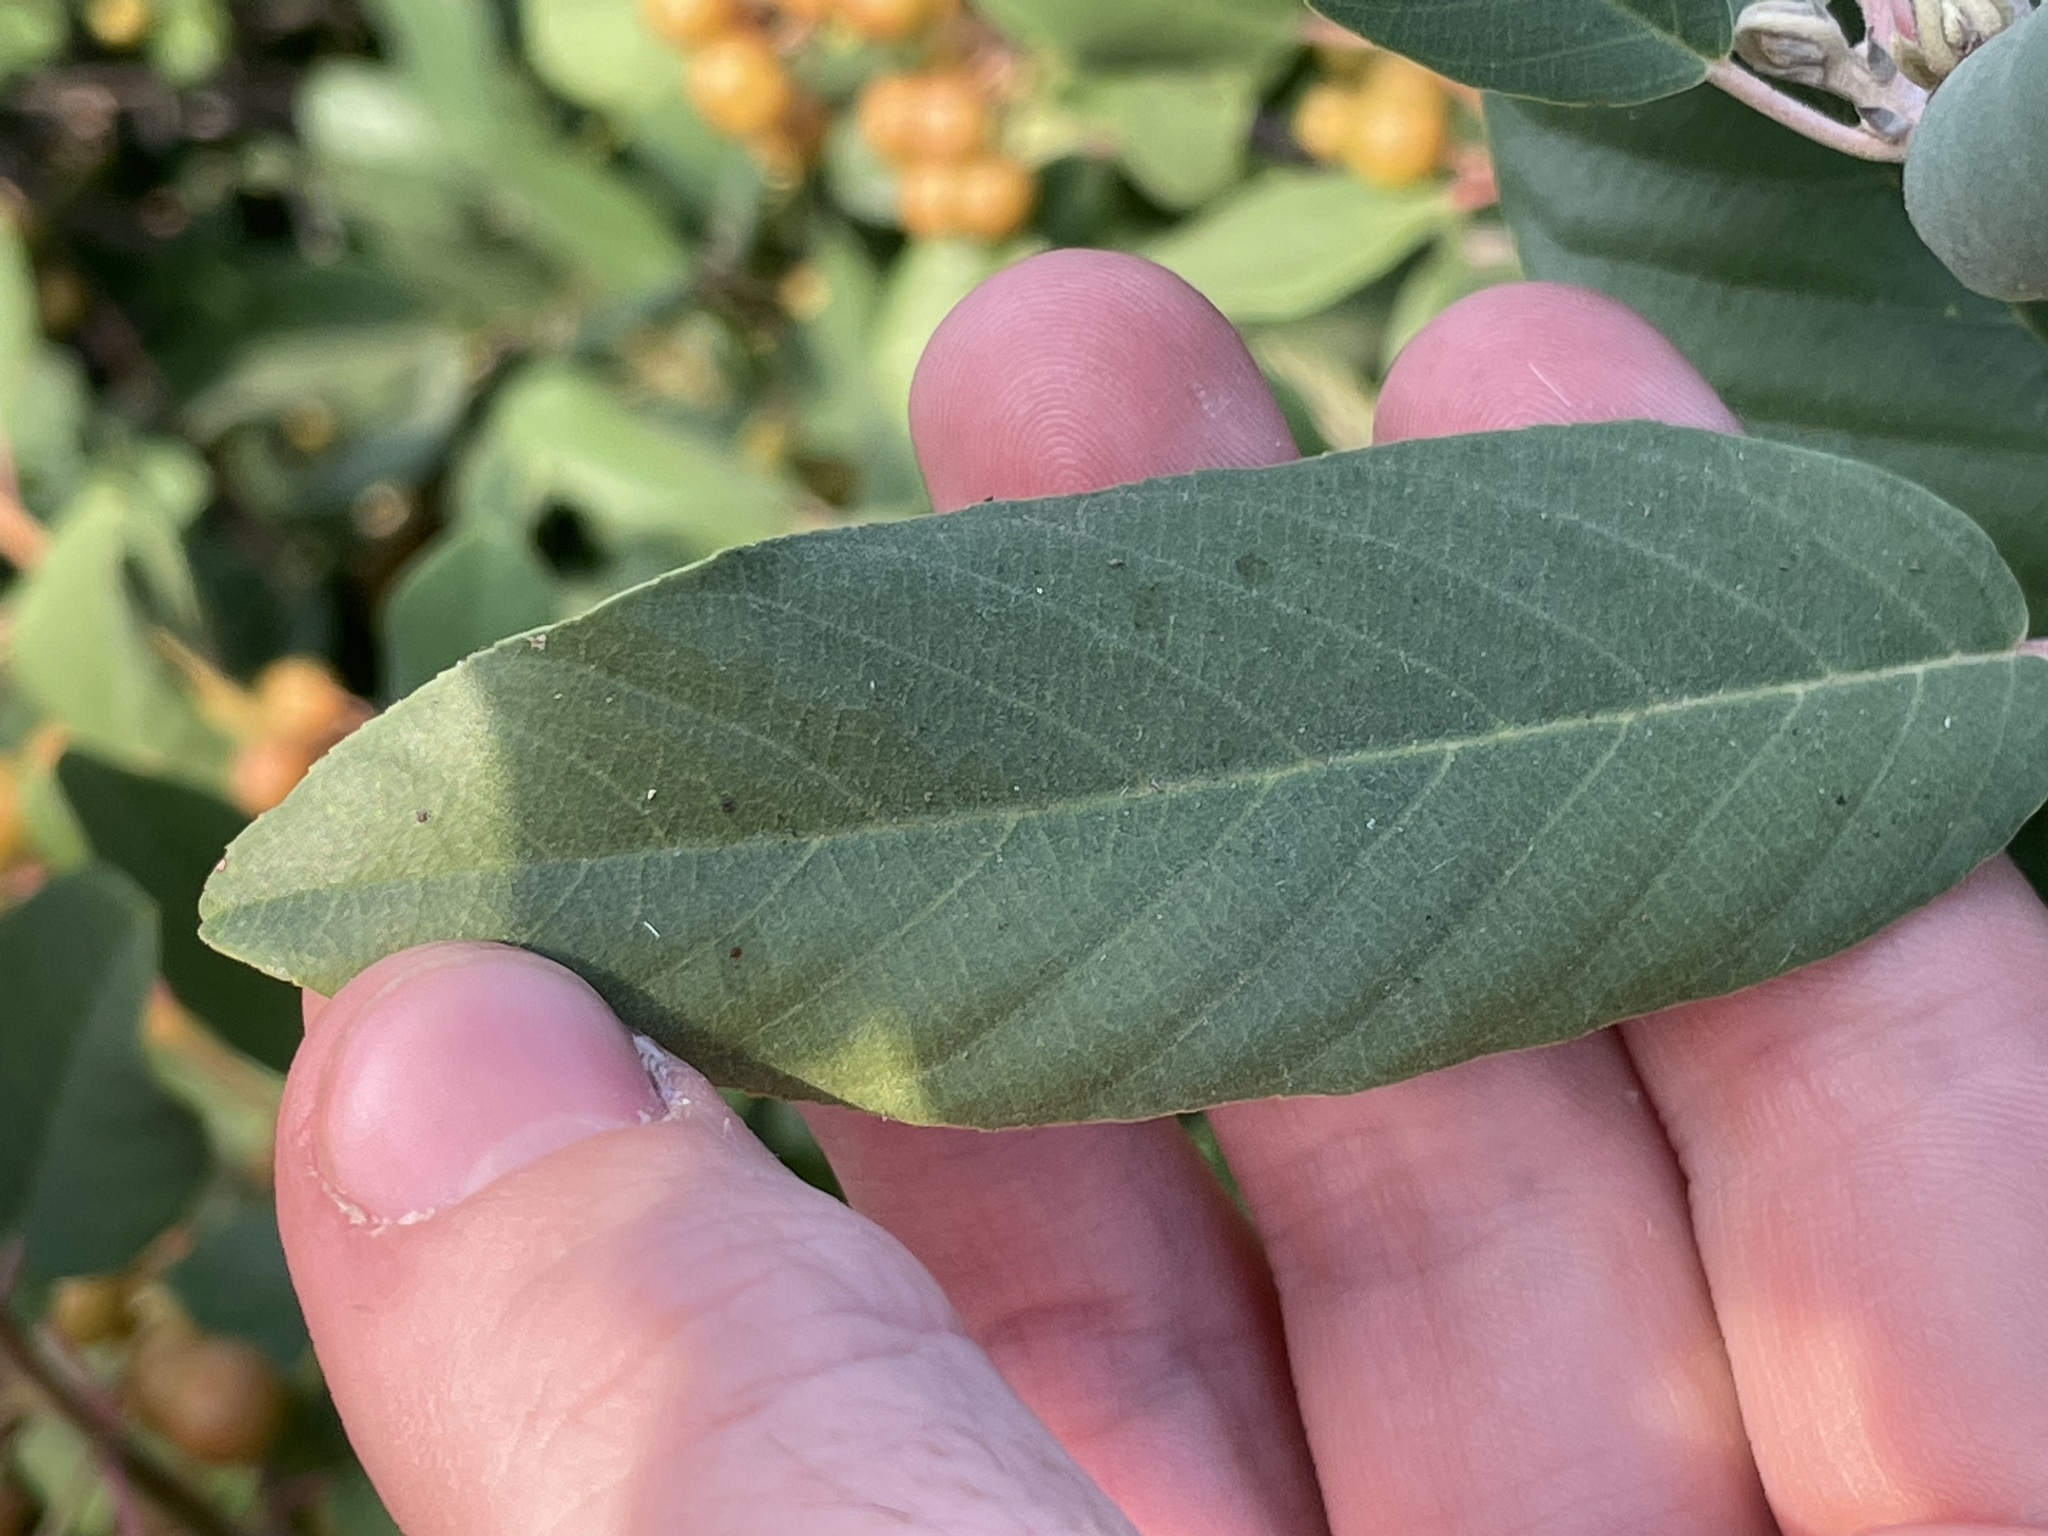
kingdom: Plantae
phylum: Tracheophyta
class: Magnoliopsida
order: Rosales
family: Rhamnaceae
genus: Frangula
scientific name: Frangula californica
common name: California buckthorn
